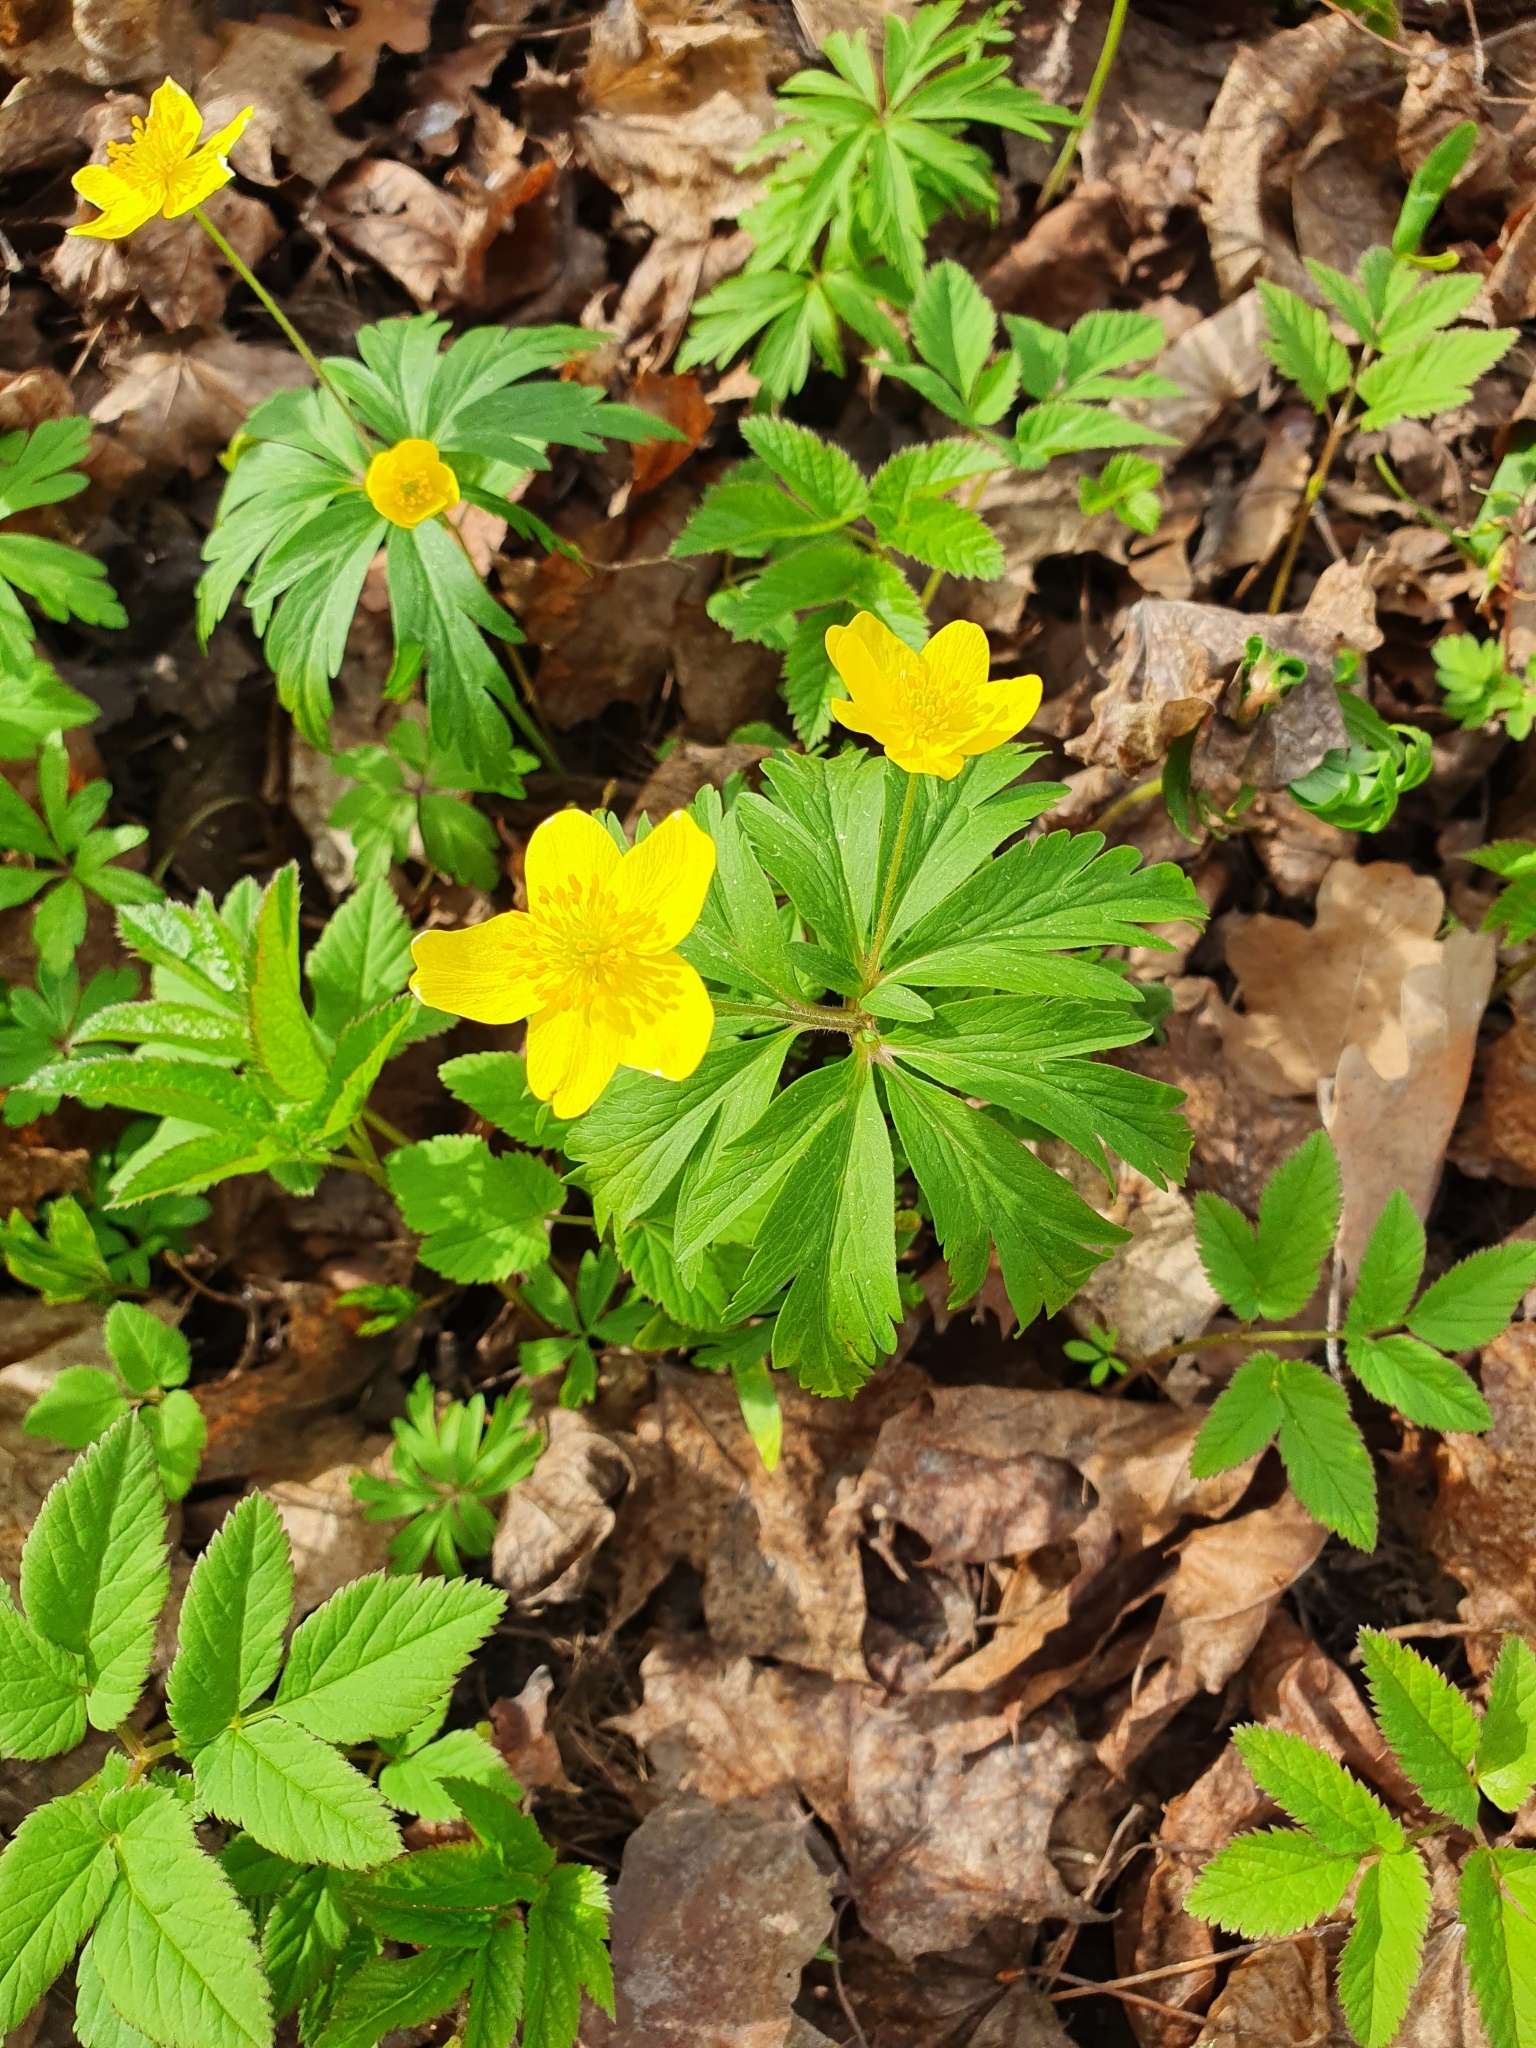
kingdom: Plantae
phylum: Tracheophyta
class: Magnoliopsida
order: Ranunculales
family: Ranunculaceae
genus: Anemone
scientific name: Anemone ranunculoides
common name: Yellow anemone
